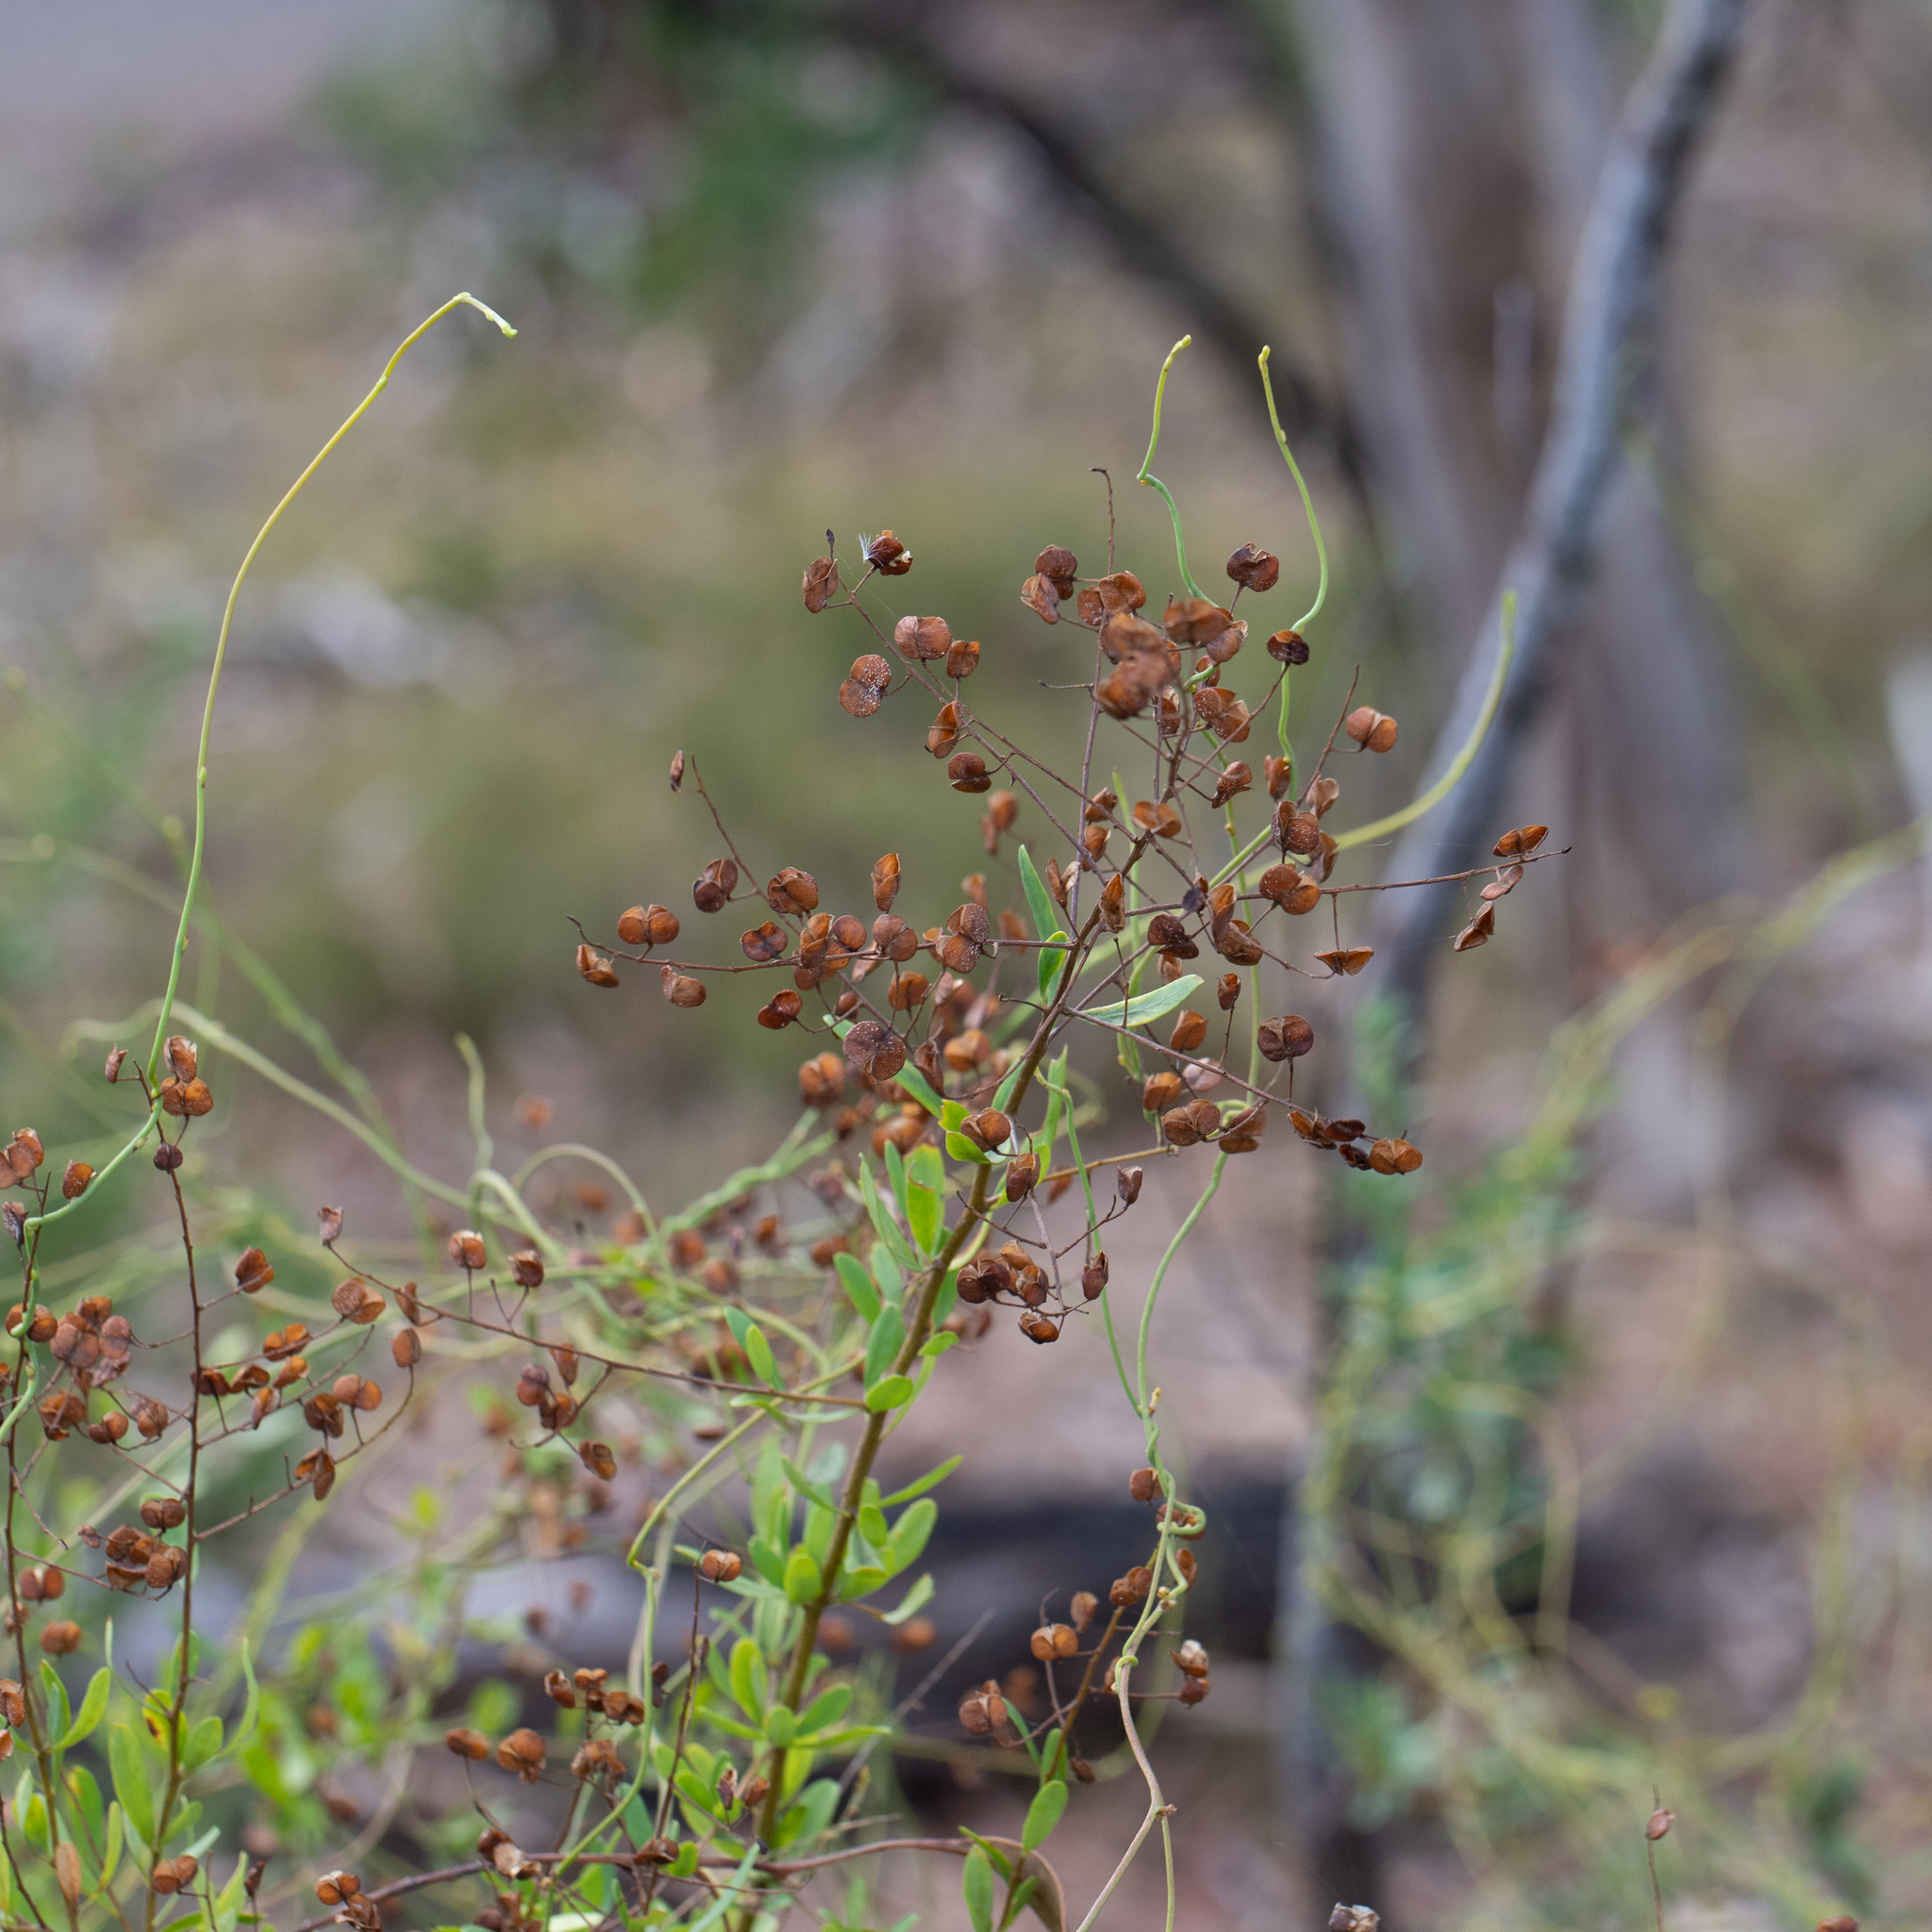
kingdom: Plantae
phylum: Tracheophyta
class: Magnoliopsida
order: Apiales
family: Pittosporaceae
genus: Bursaria
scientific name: Bursaria spinosa
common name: Australian blackthorn
